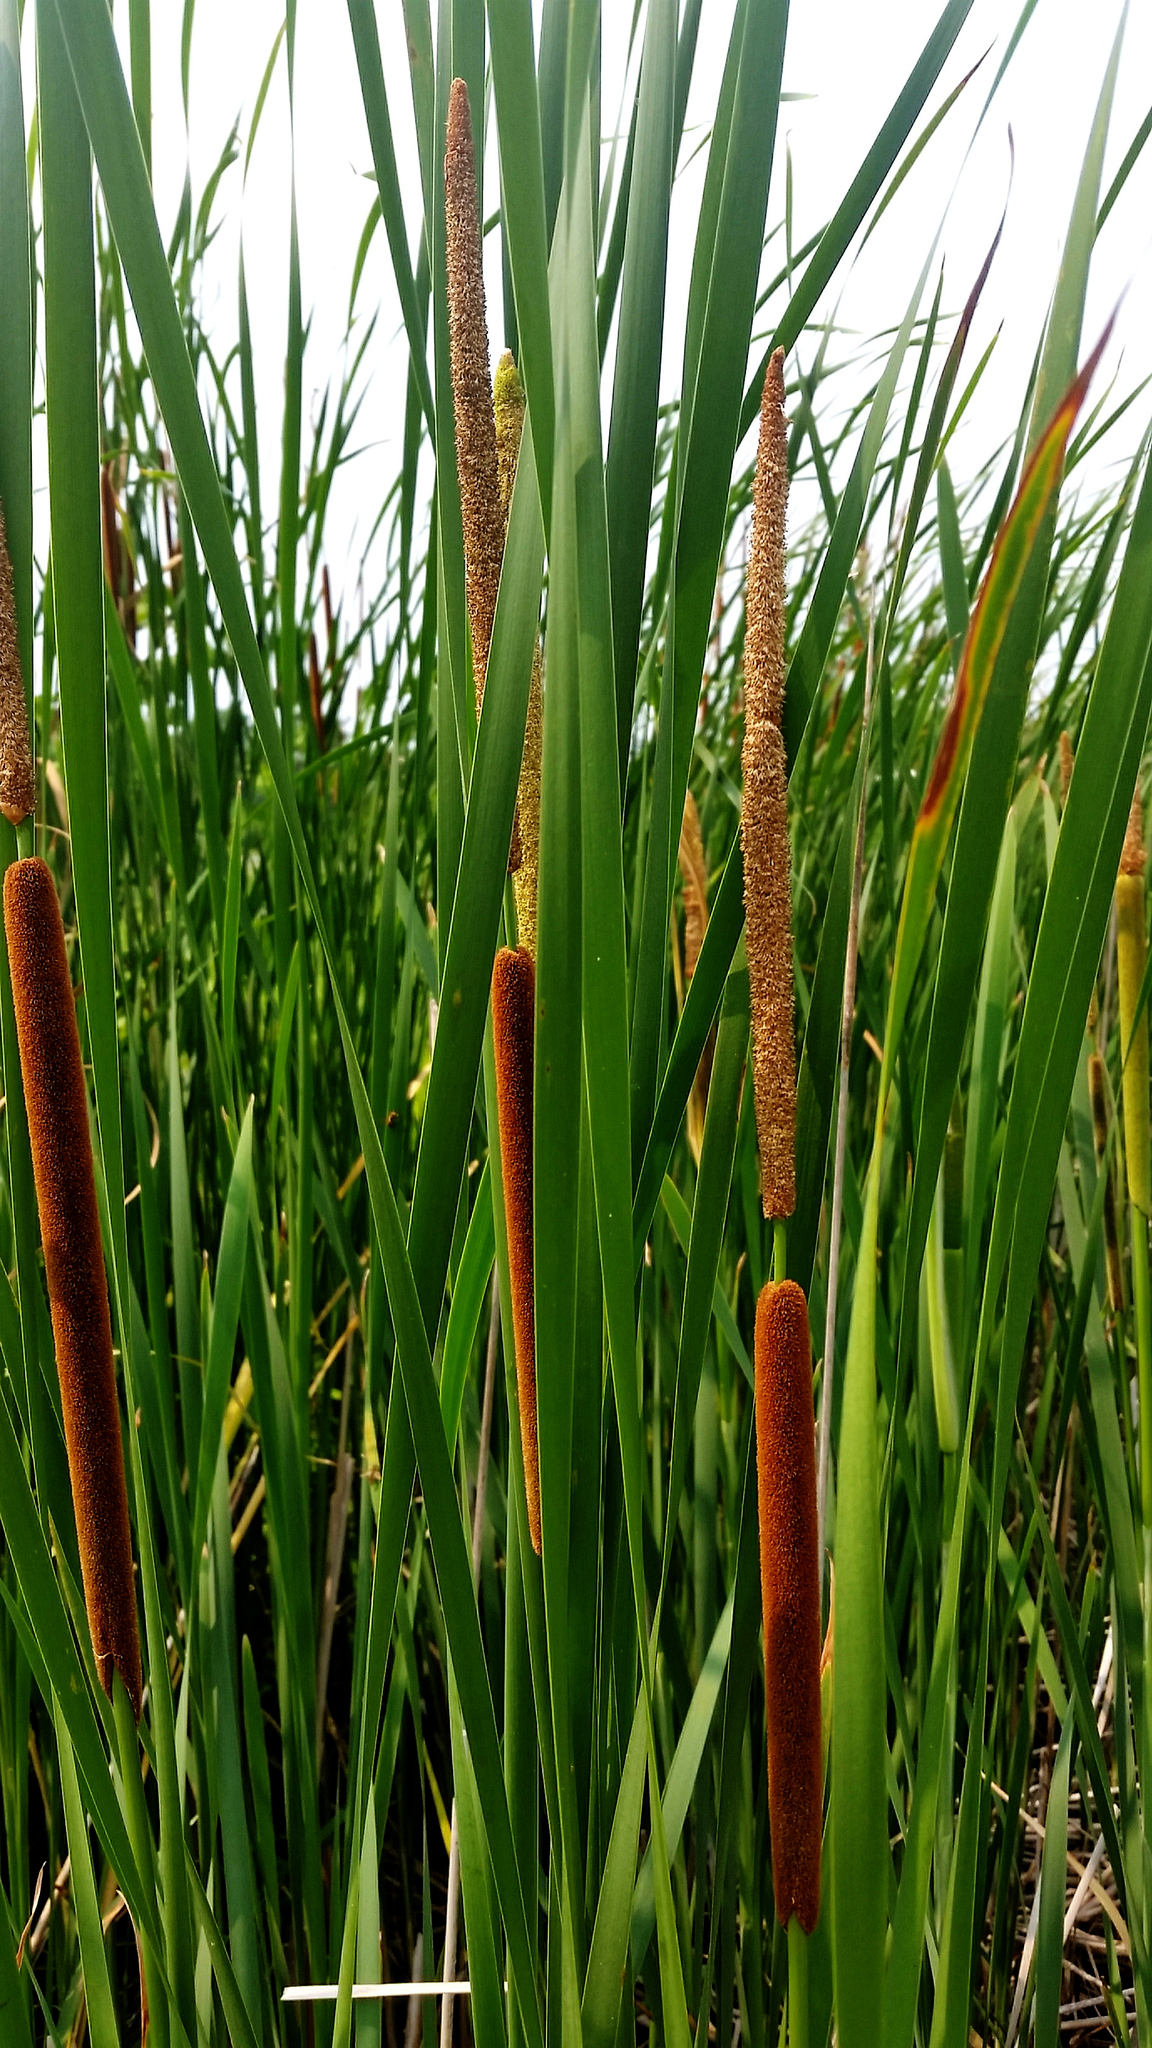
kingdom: Plantae
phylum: Tracheophyta
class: Liliopsida
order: Poales
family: Typhaceae
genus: Typha
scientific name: Typha angustifolia
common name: Lesser bulrush
